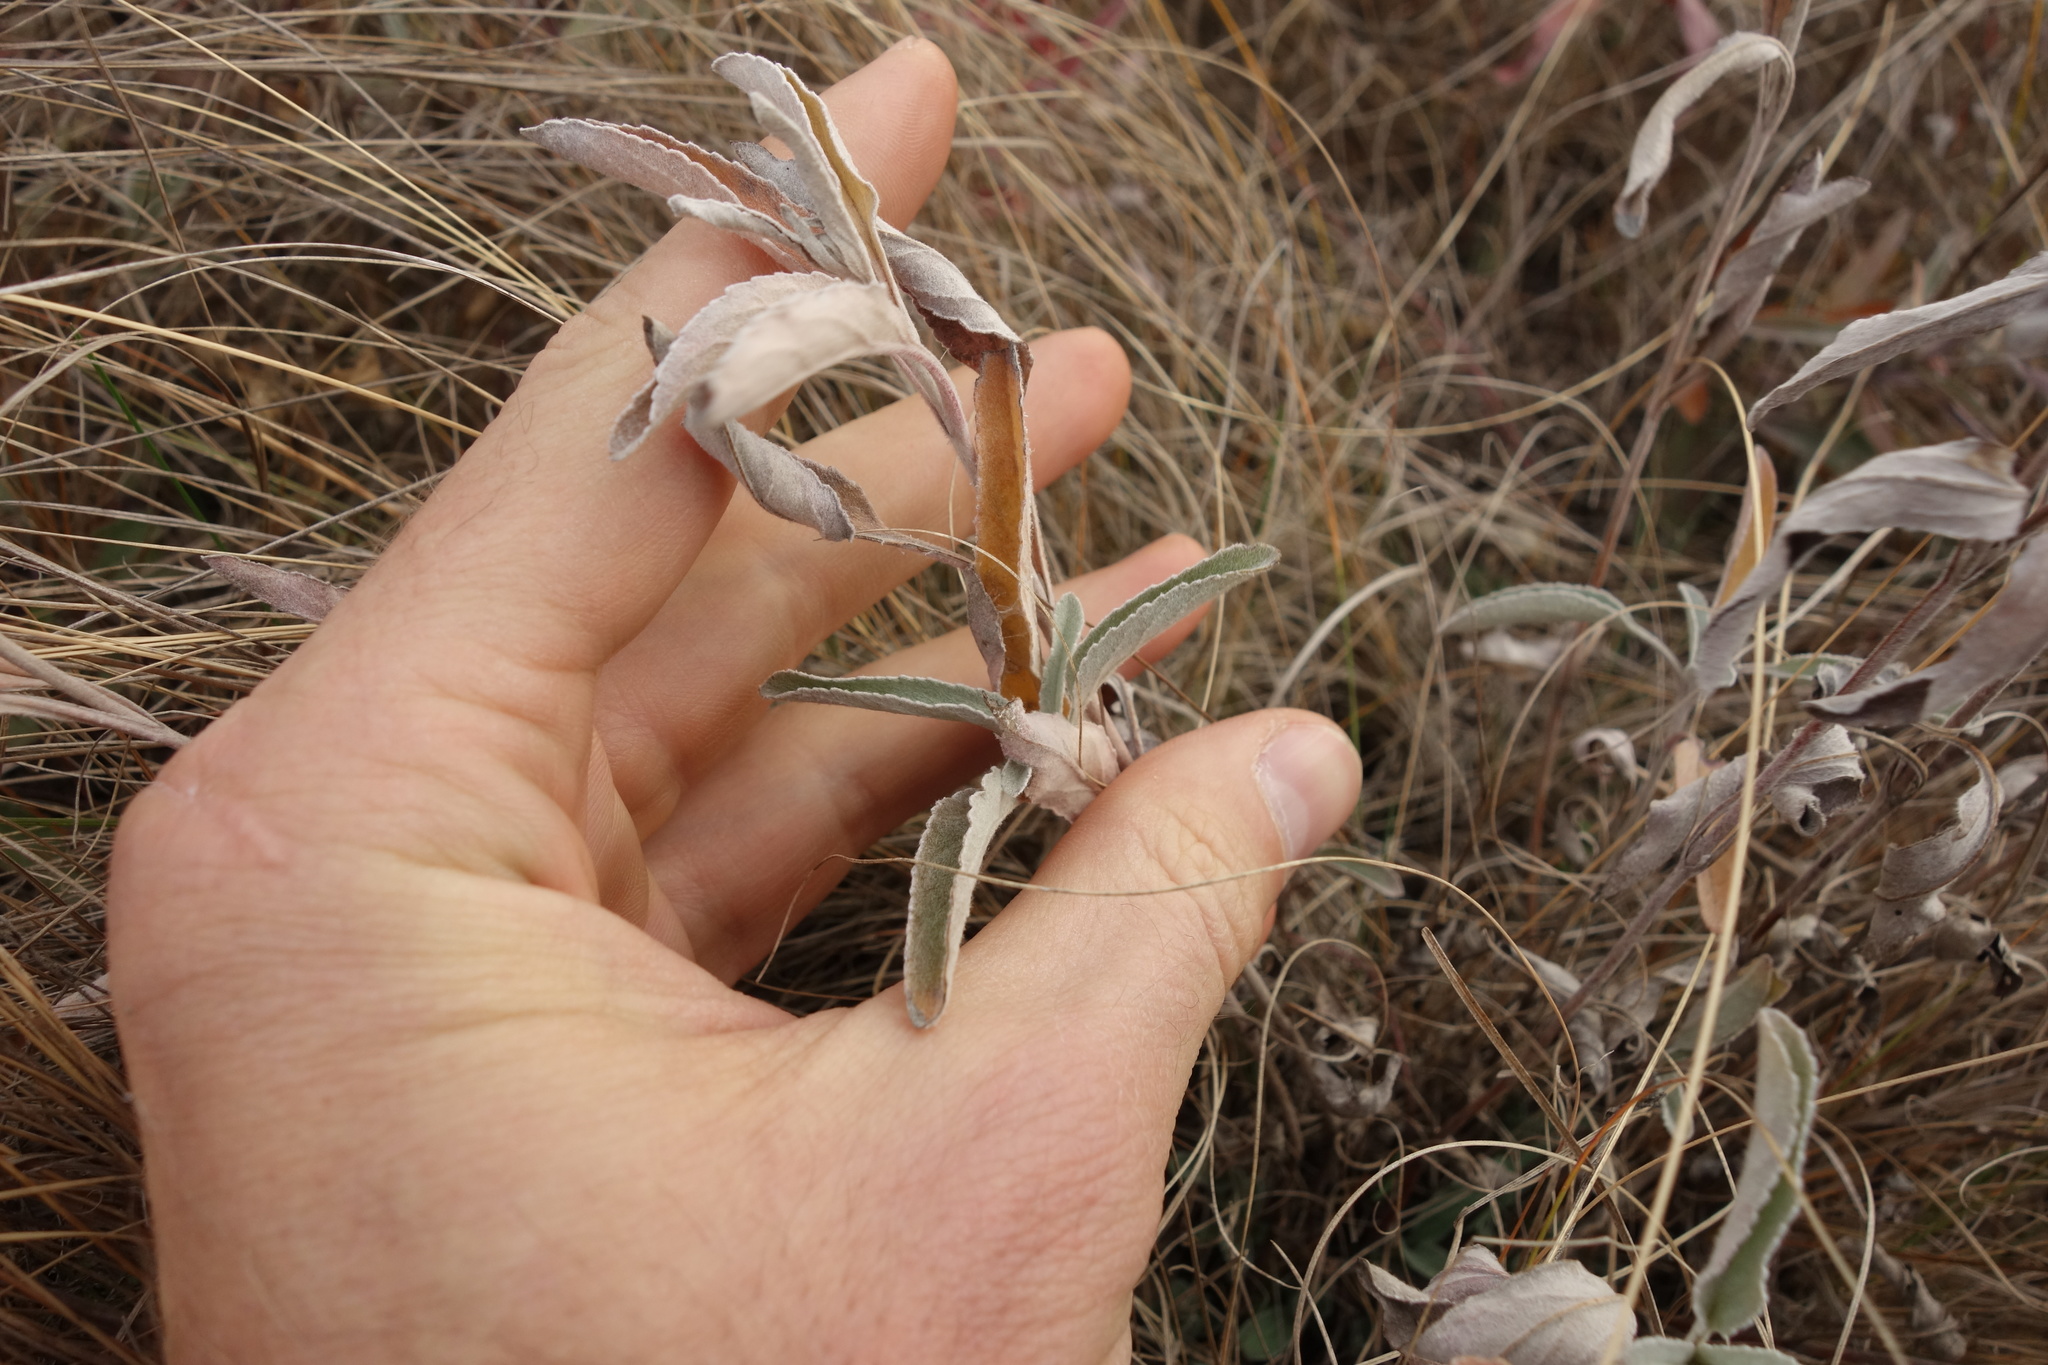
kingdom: Plantae
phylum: Tracheophyta
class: Magnoliopsida
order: Lamiales
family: Plantaginaceae
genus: Veronica
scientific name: Veronica incana
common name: Silver speedwell
